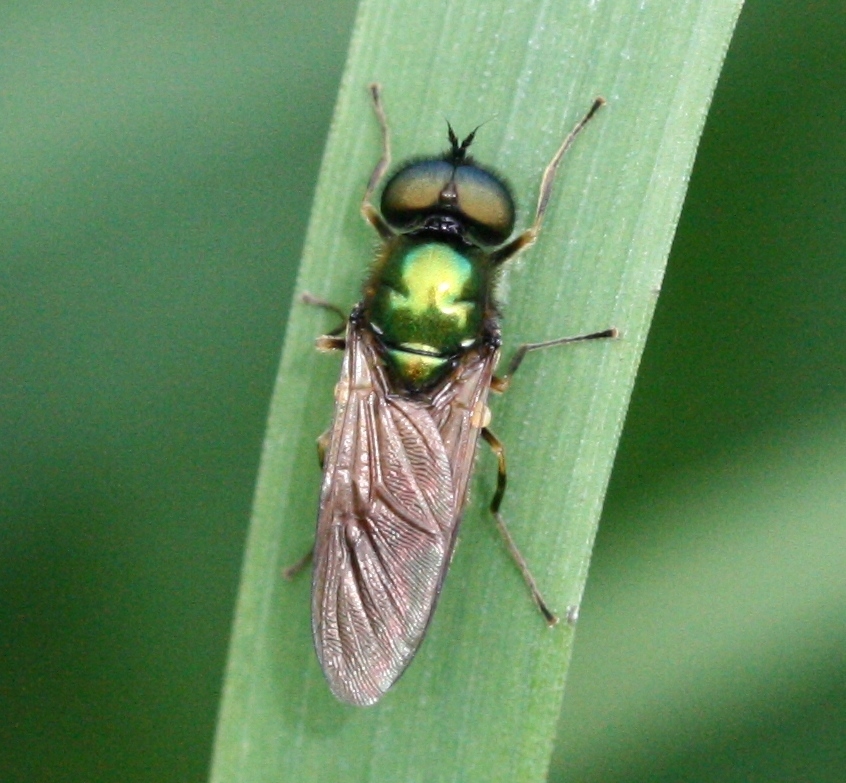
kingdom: Animalia
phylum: Arthropoda
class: Insecta
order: Diptera
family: Stratiomyidae
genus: Chloromyia
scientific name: Chloromyia formosa
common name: Soldier fly
